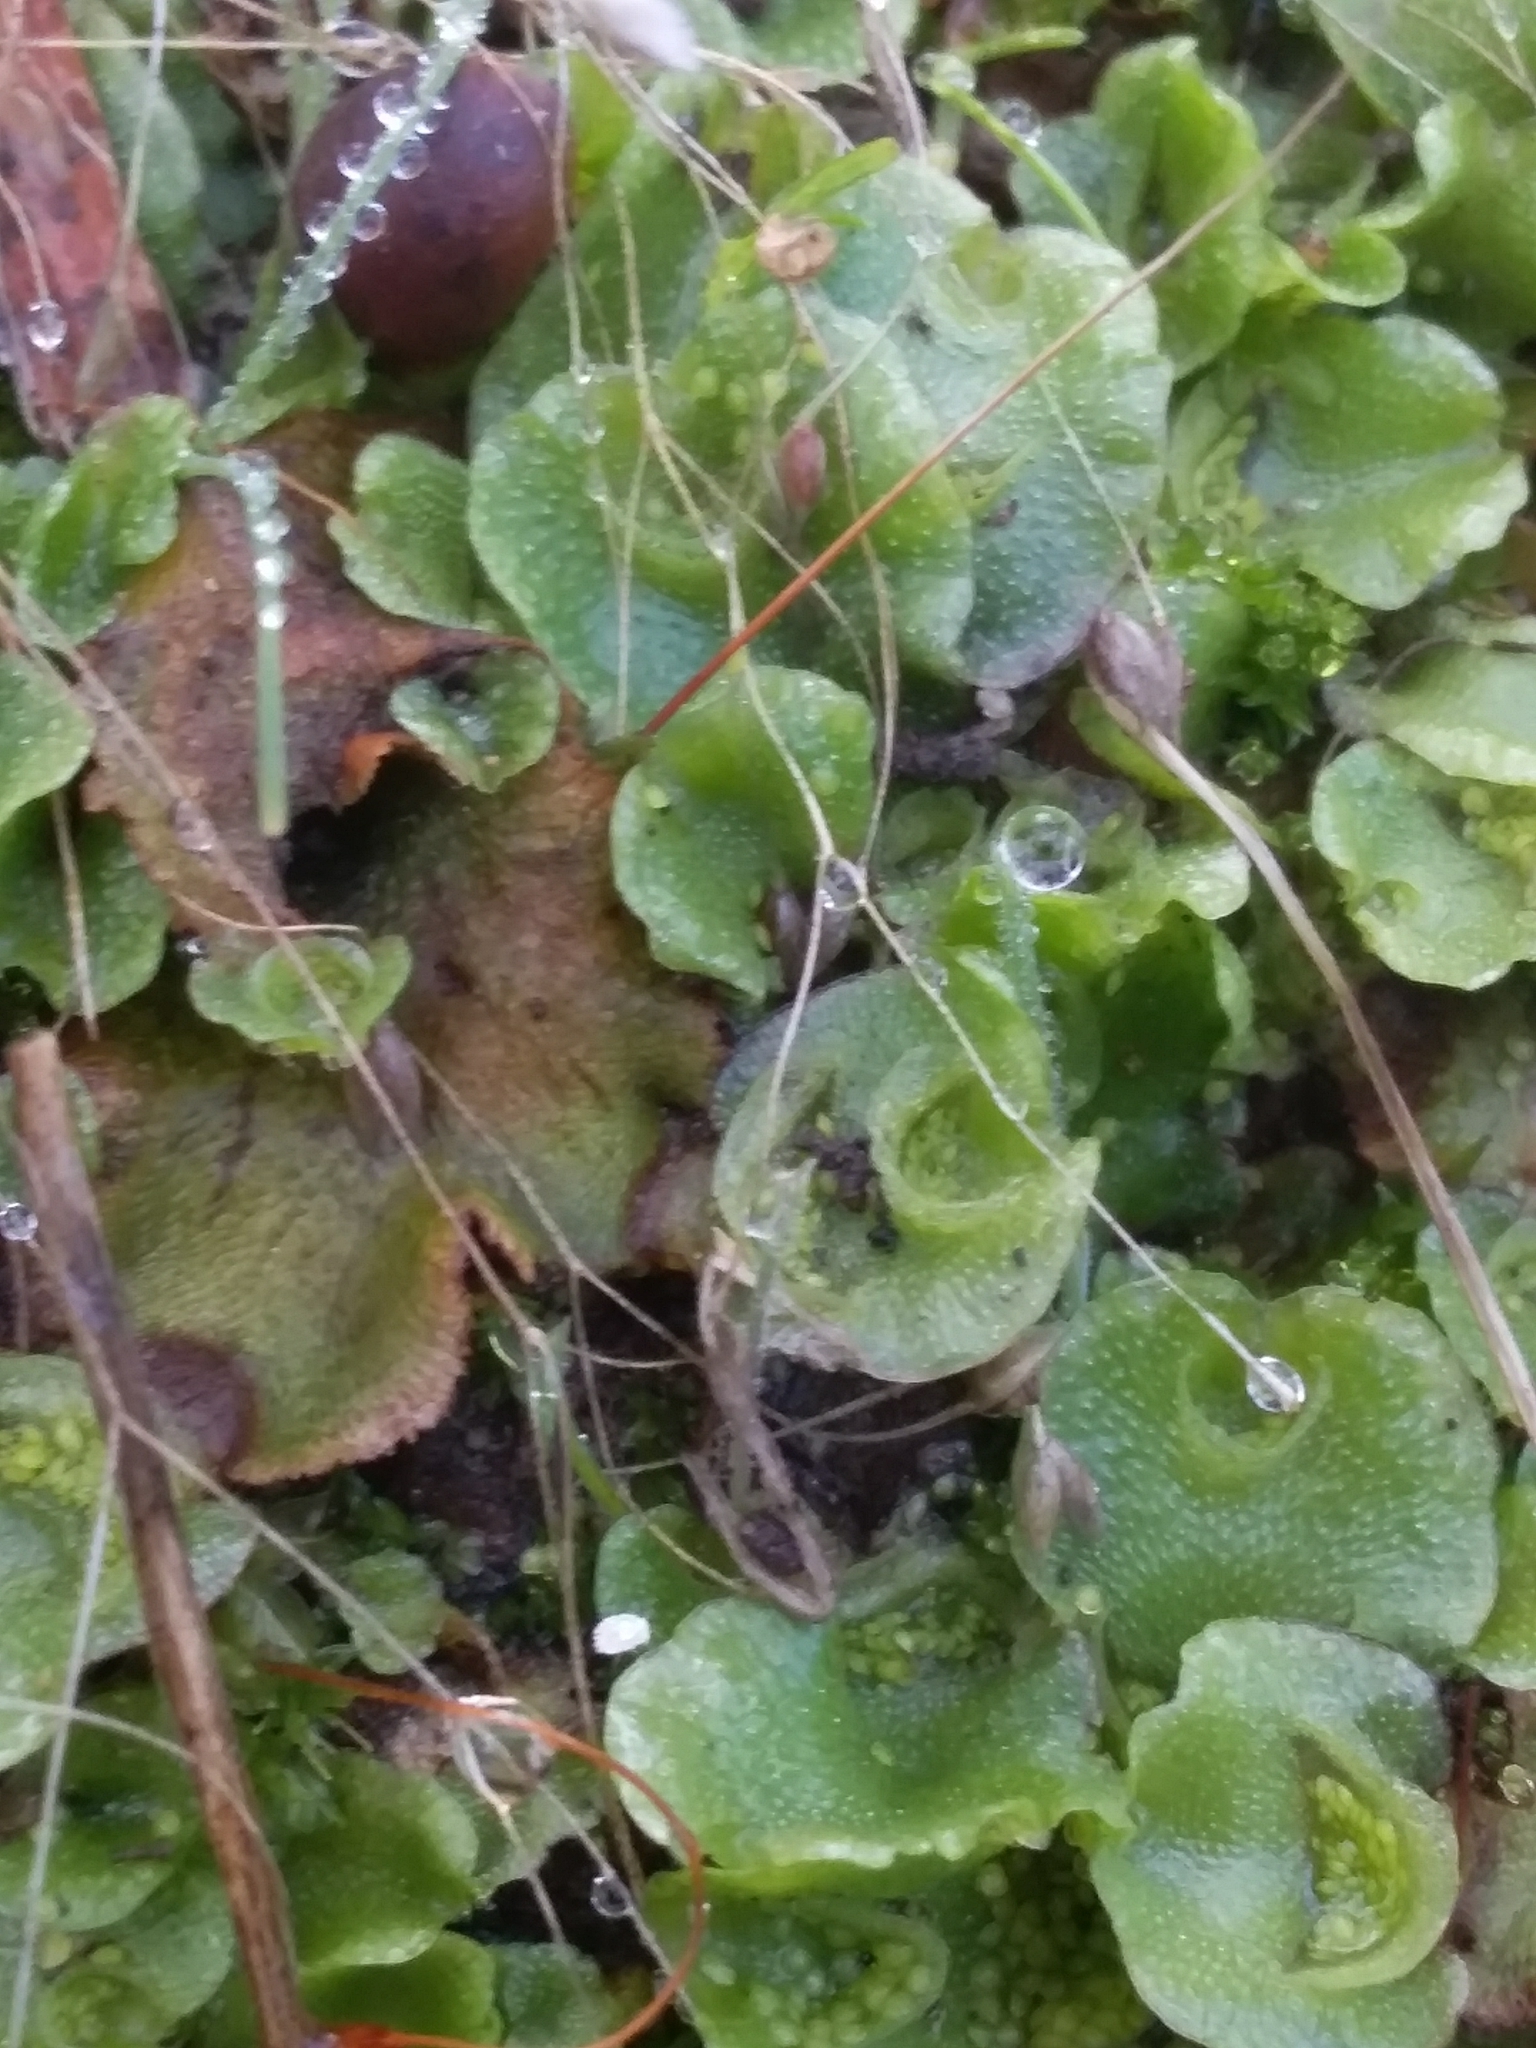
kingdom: Plantae
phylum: Marchantiophyta
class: Marchantiopsida
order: Lunulariales
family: Lunulariaceae
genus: Lunularia
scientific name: Lunularia cruciata
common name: Crescent-cup liverwort
